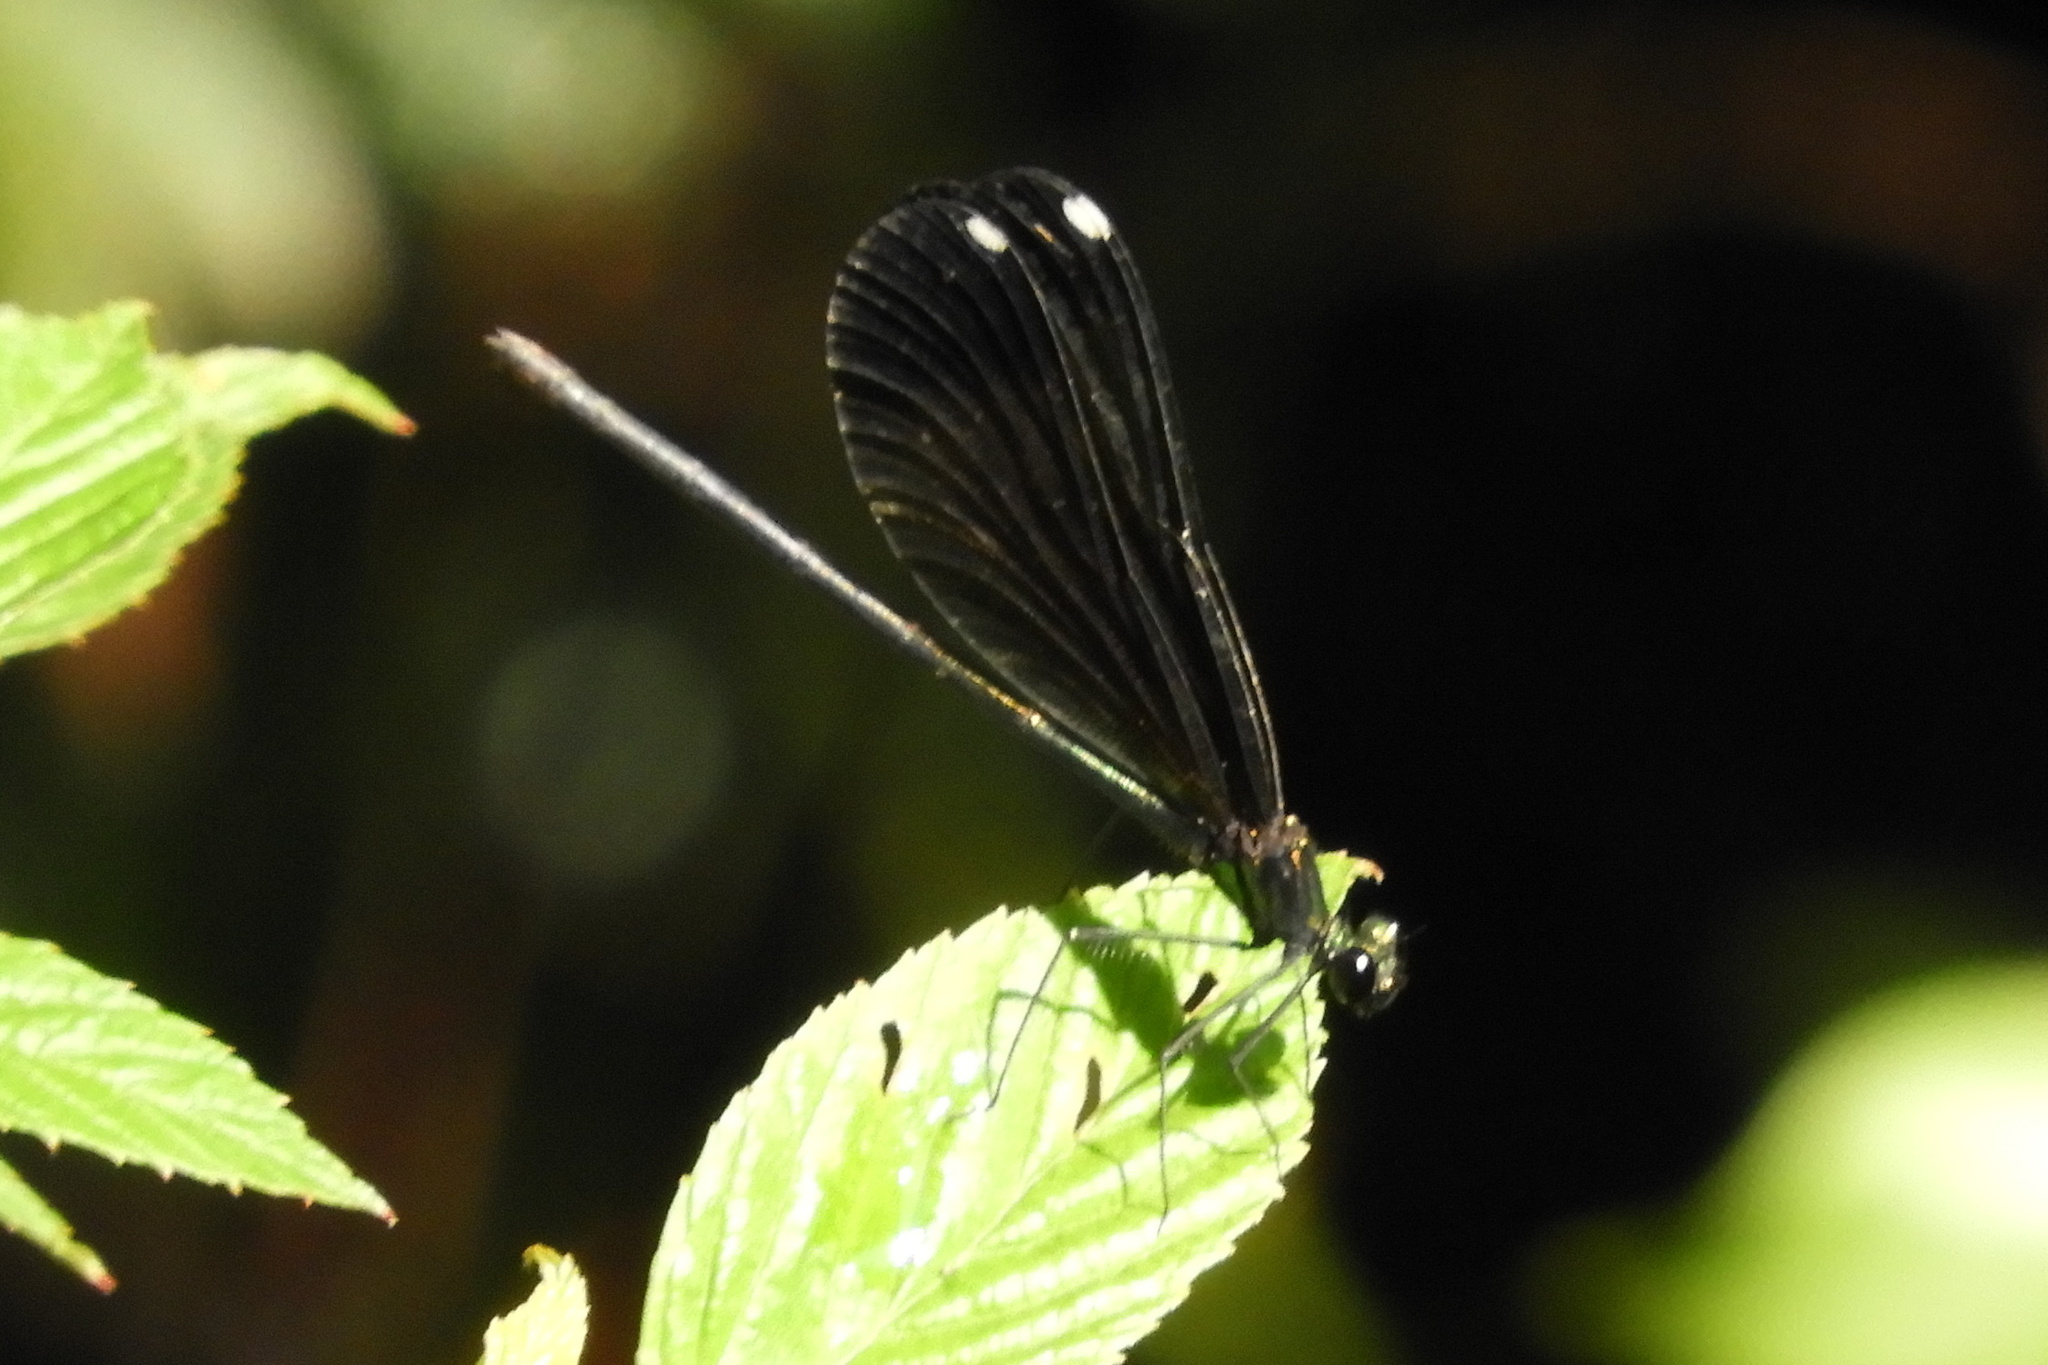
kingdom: Animalia
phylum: Arthropoda
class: Insecta
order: Odonata
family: Calopterygidae
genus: Calopteryx
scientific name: Calopteryx maculata
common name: Ebony jewelwing
